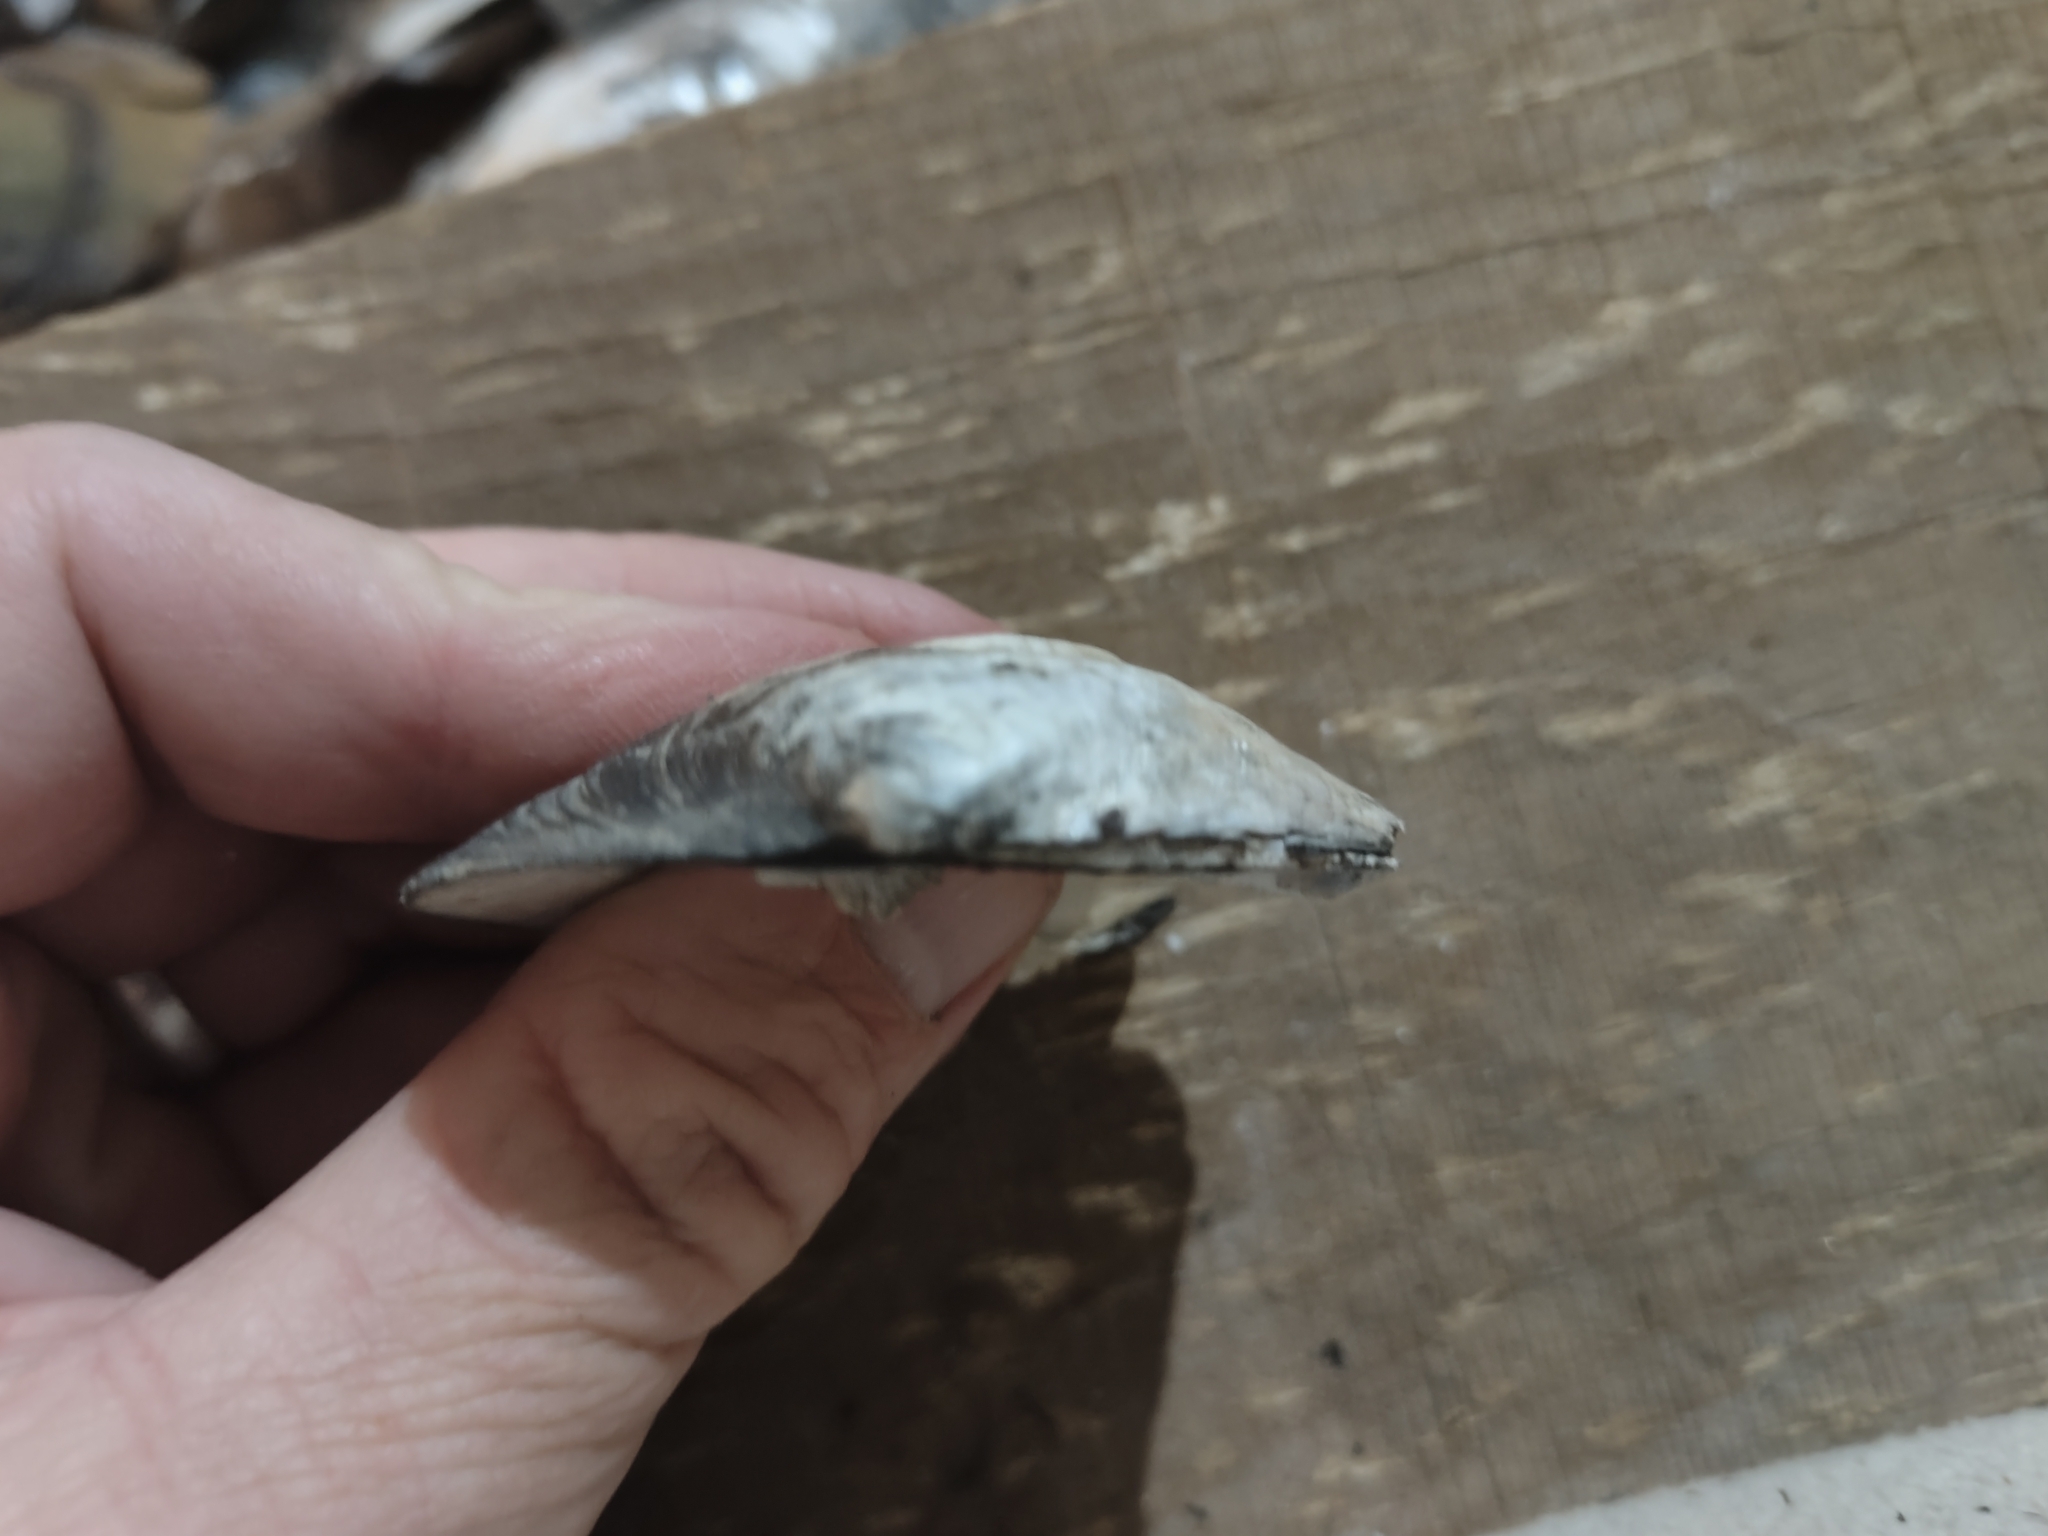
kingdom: Animalia
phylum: Mollusca
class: Bivalvia
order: Unionida
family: Unionidae
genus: Amblema
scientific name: Amblema plicata
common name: Threeridge
